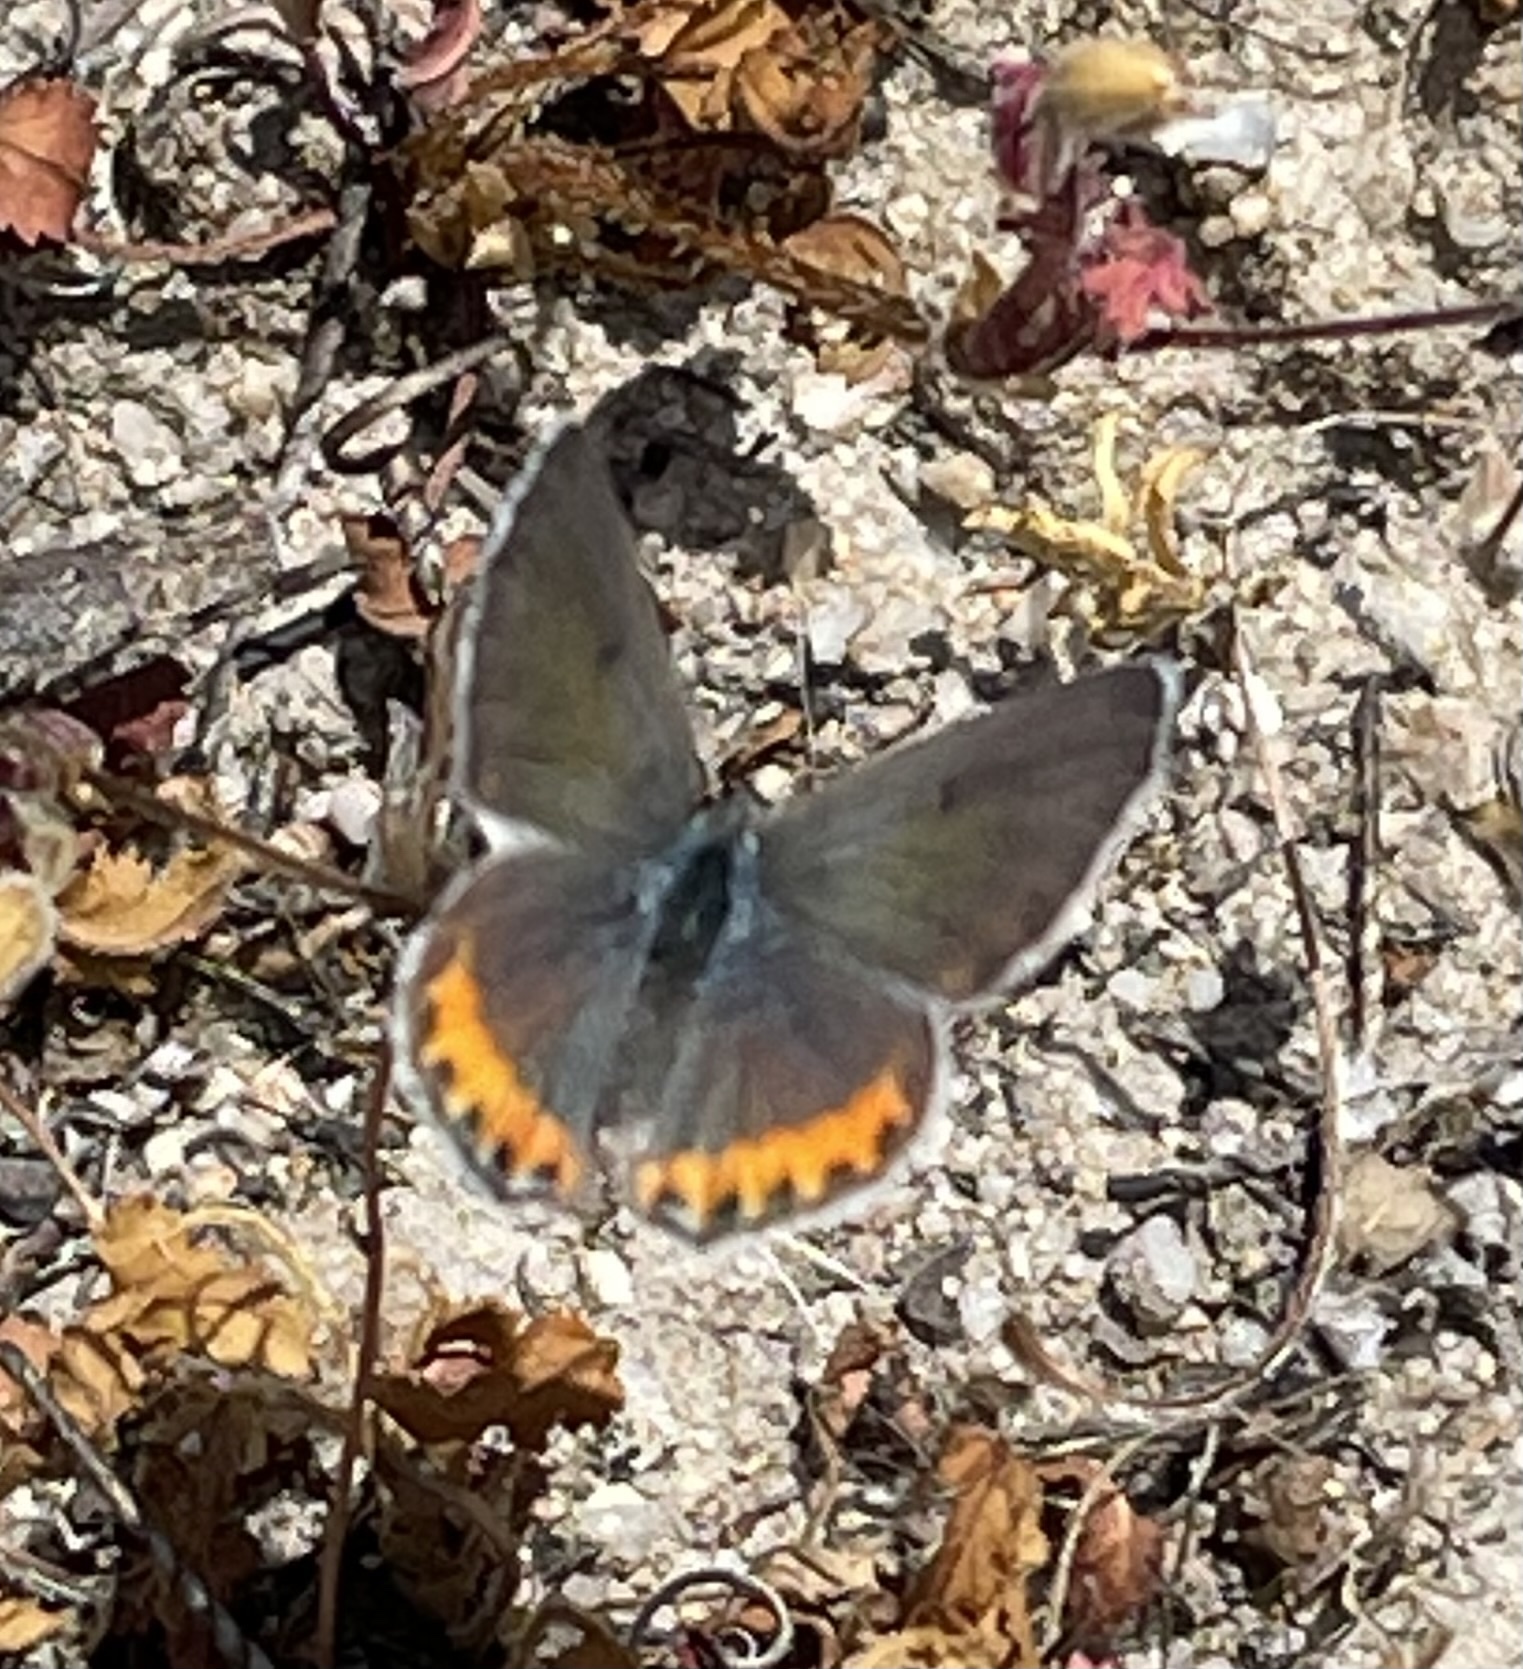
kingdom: Animalia
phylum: Arthropoda
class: Insecta
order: Lepidoptera
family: Lycaenidae
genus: Icaricia
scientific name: Icaricia acmon
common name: Acmon blue
